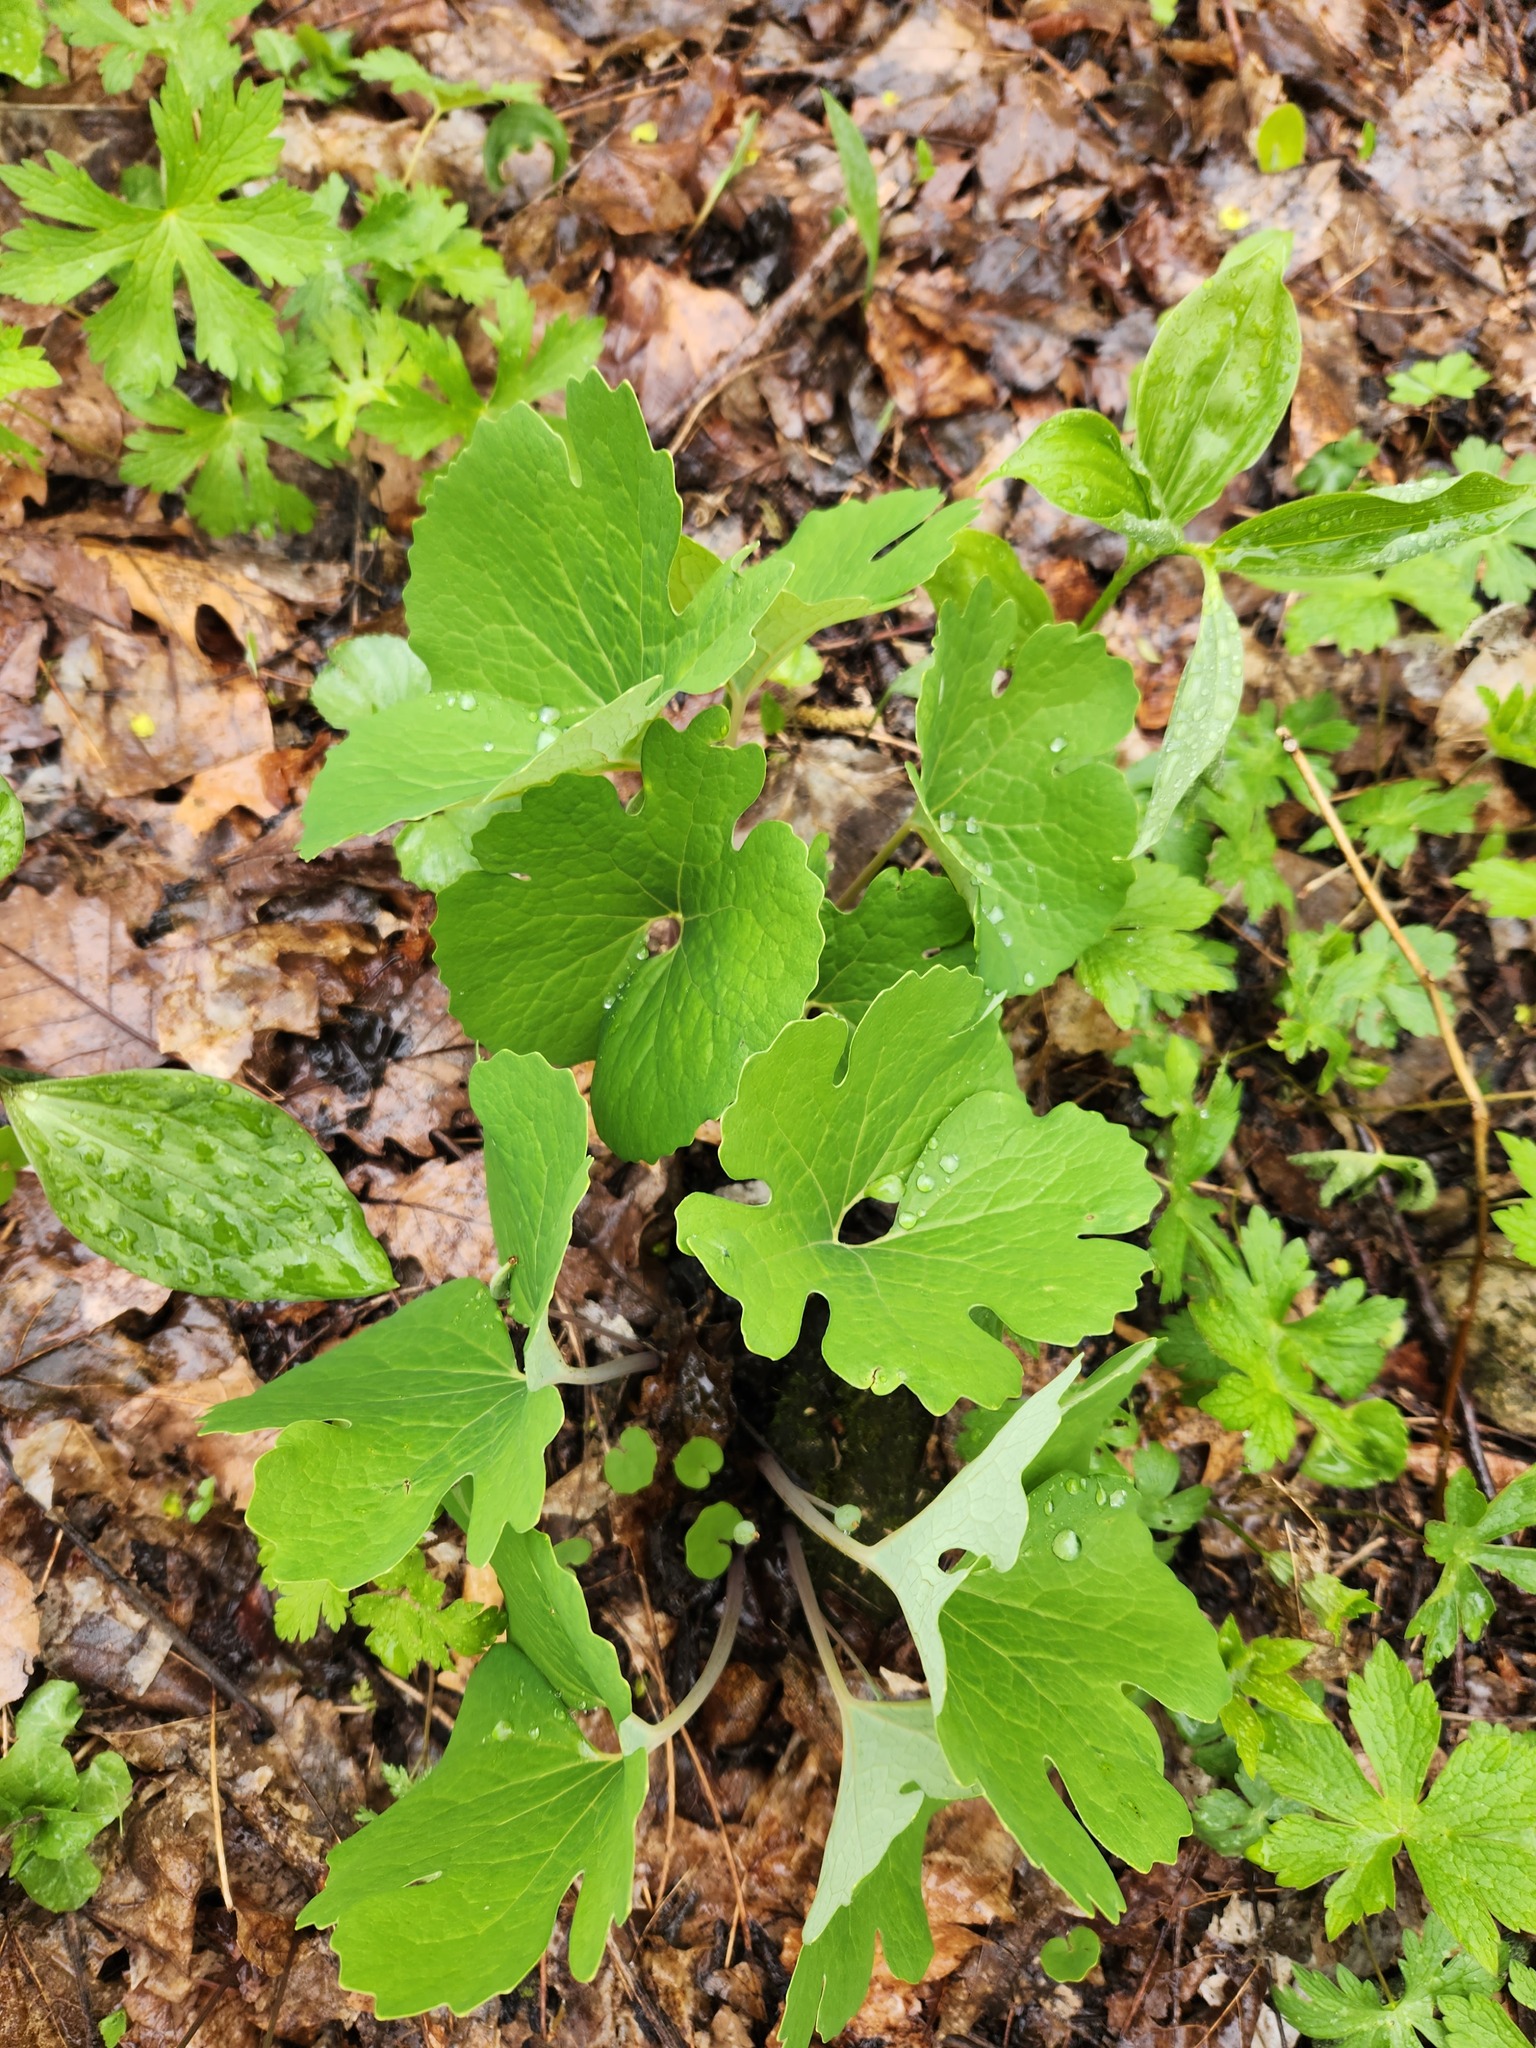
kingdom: Plantae
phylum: Tracheophyta
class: Magnoliopsida
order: Ranunculales
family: Papaveraceae
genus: Sanguinaria
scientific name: Sanguinaria canadensis
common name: Bloodroot
